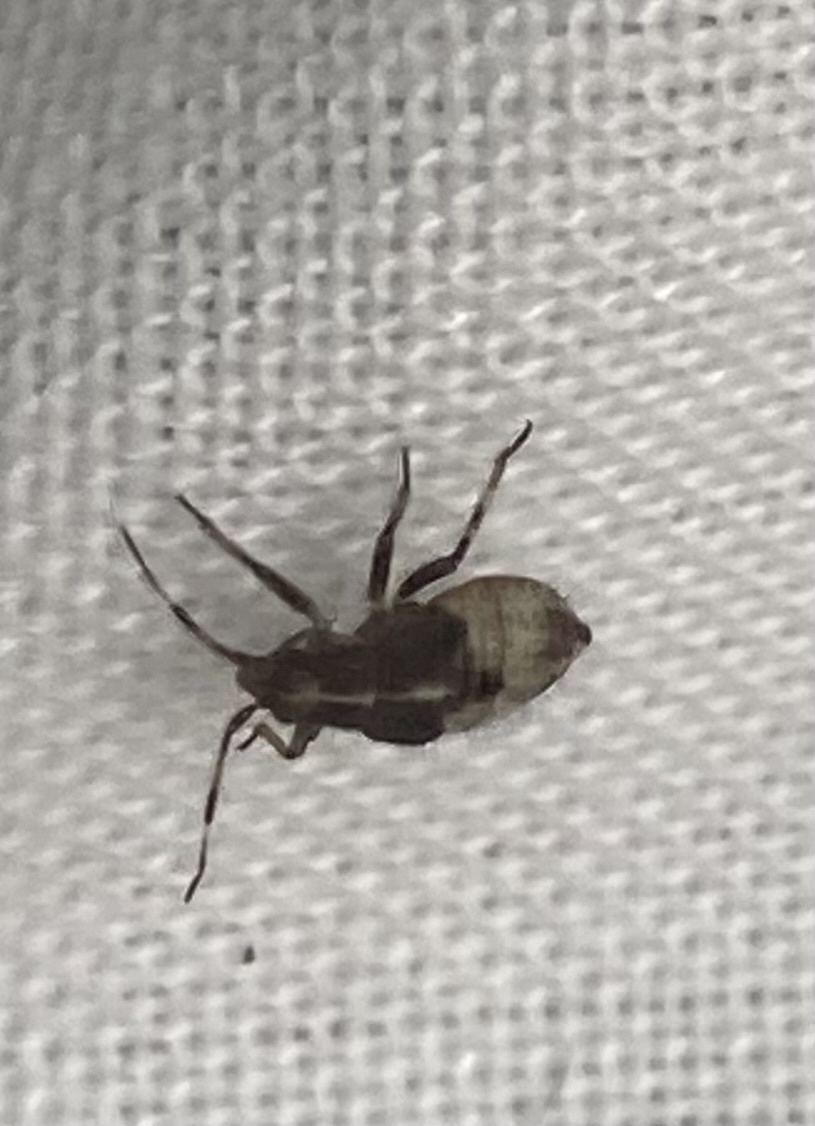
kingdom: Animalia
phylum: Arthropoda
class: Insecta
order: Hemiptera
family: Miridae
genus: Deraeocoris
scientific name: Deraeocoris flavilinea
